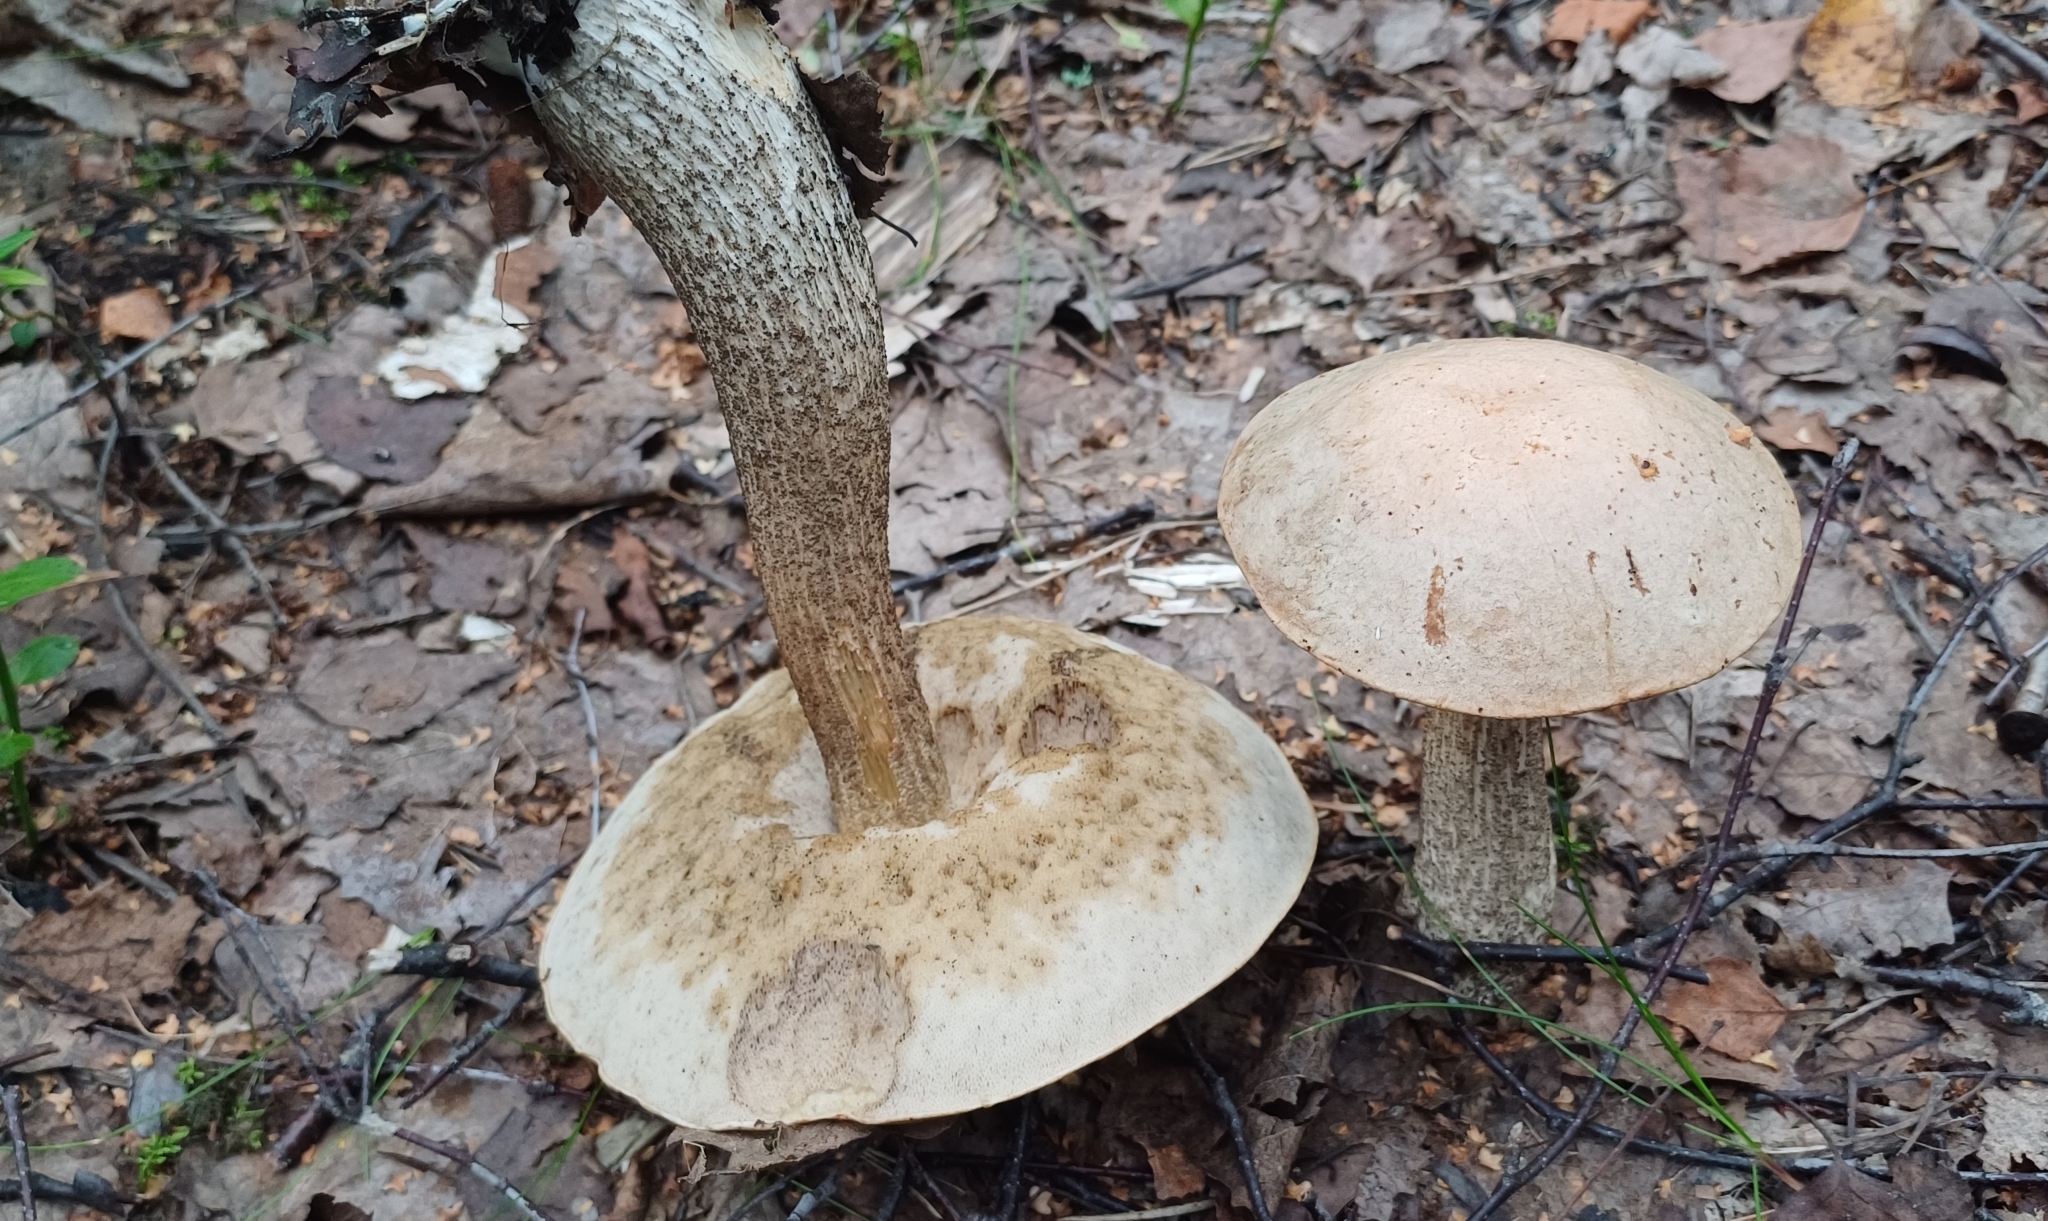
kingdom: Fungi
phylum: Basidiomycota
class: Agaricomycetes
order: Boletales
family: Boletaceae
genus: Leccinum
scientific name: Leccinum scabrum
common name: Blushing bolete
